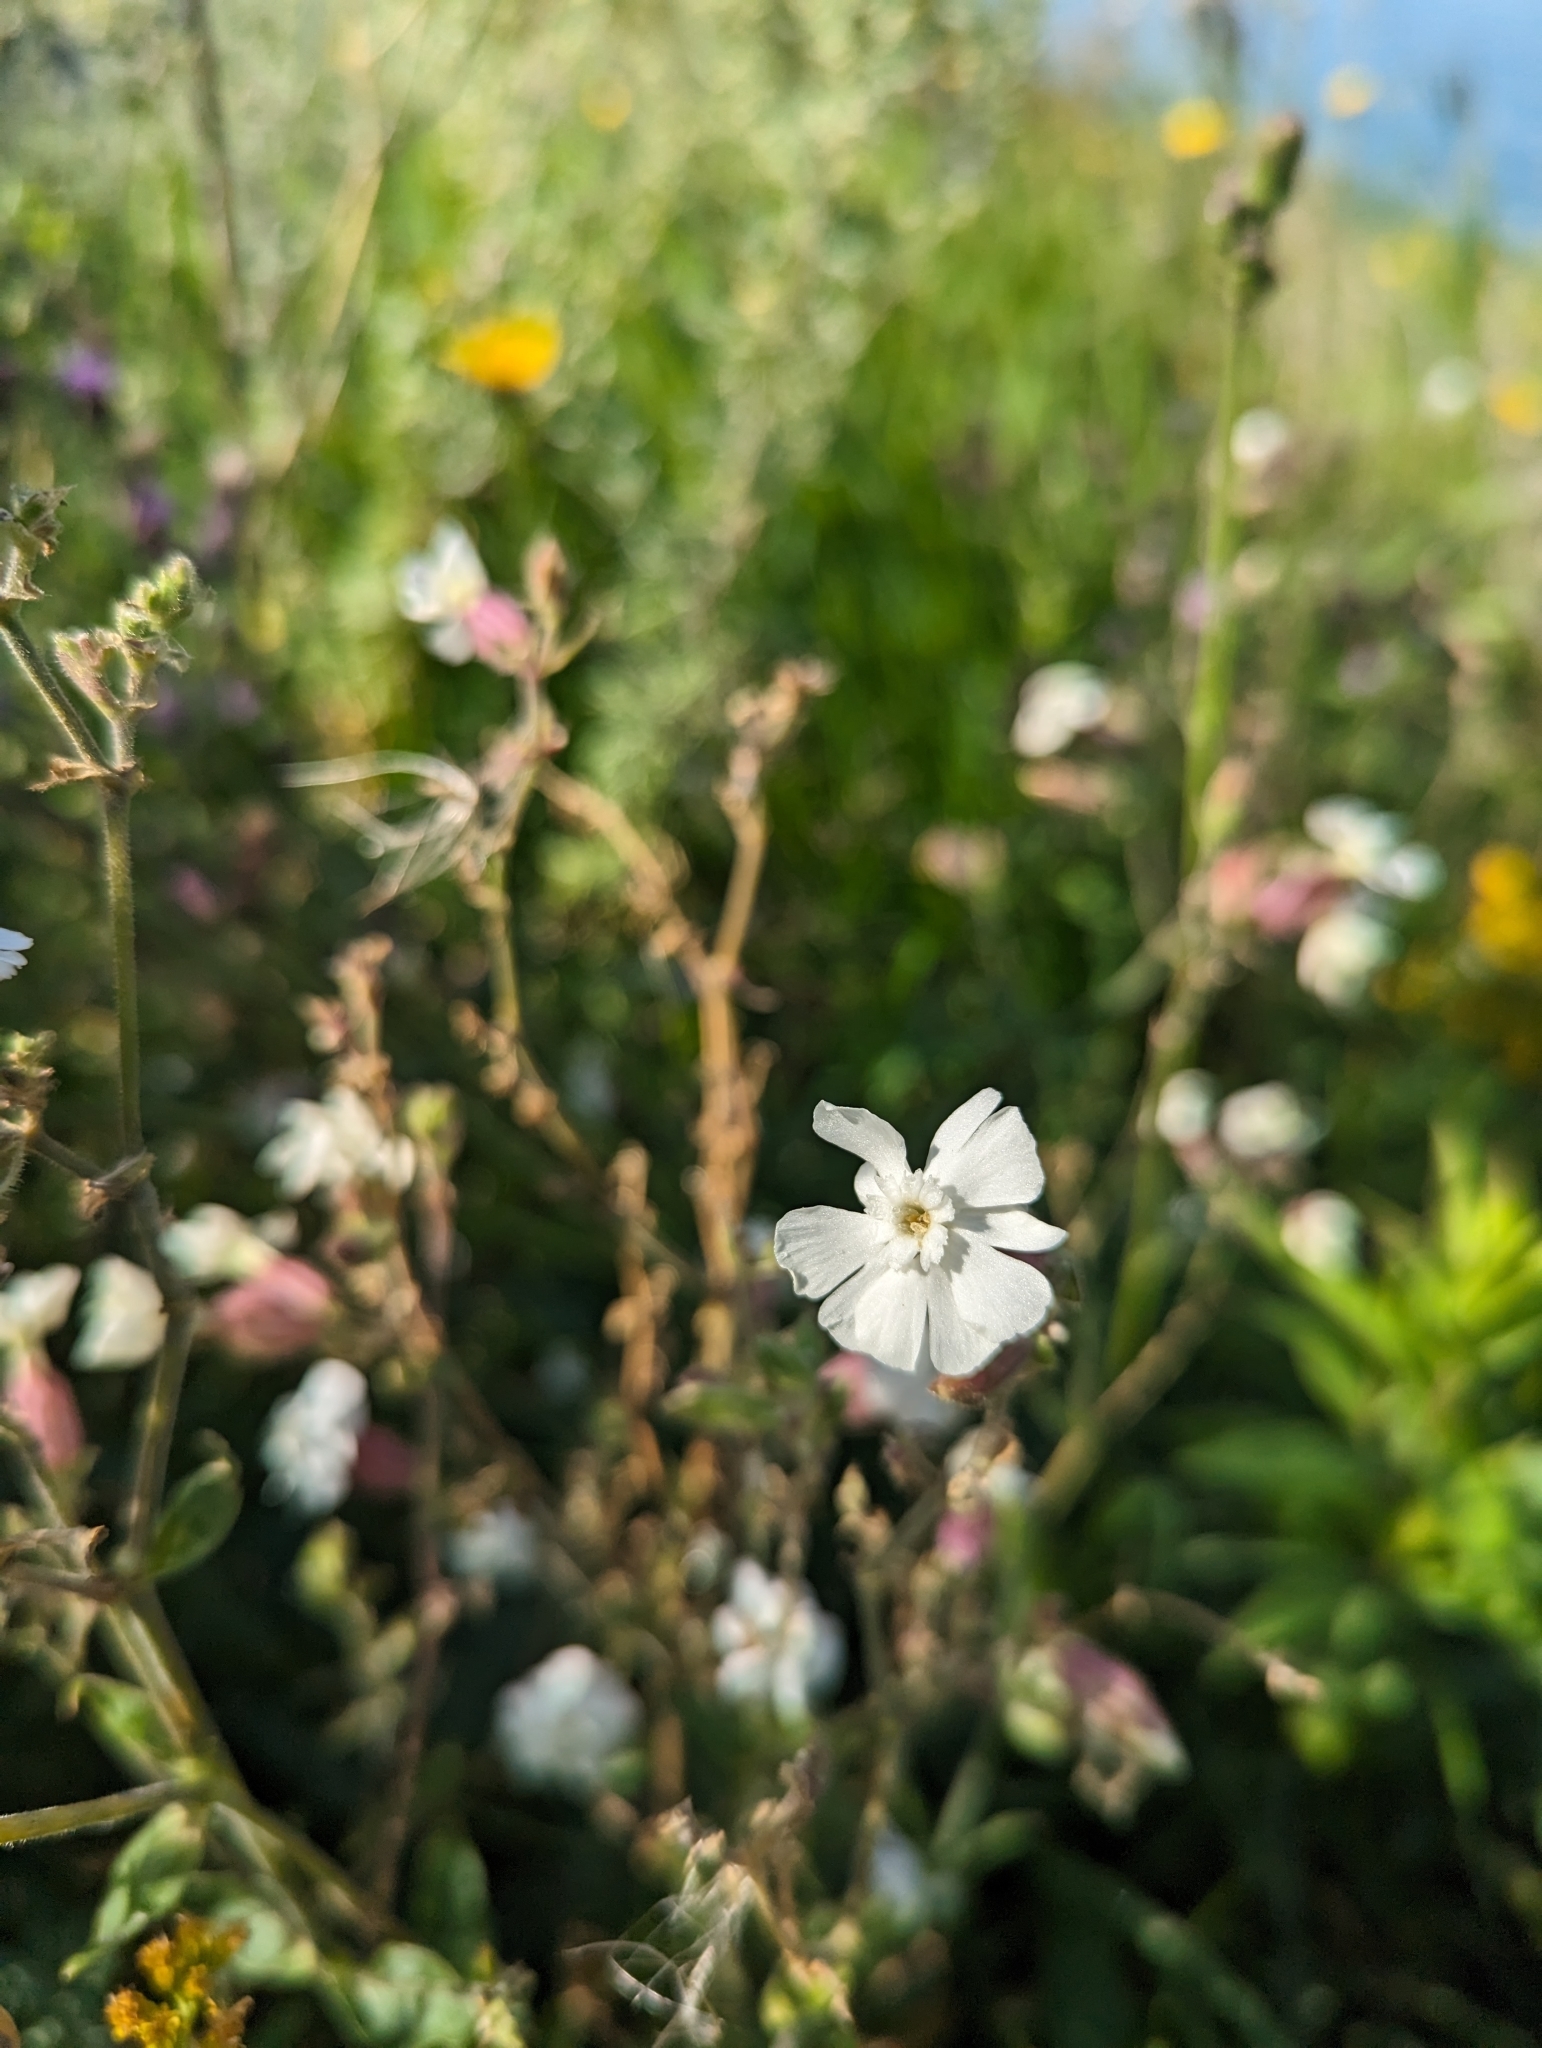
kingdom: Plantae
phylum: Tracheophyta
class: Magnoliopsida
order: Caryophyllales
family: Caryophyllaceae
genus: Silene
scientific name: Silene latifolia
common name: White campion
